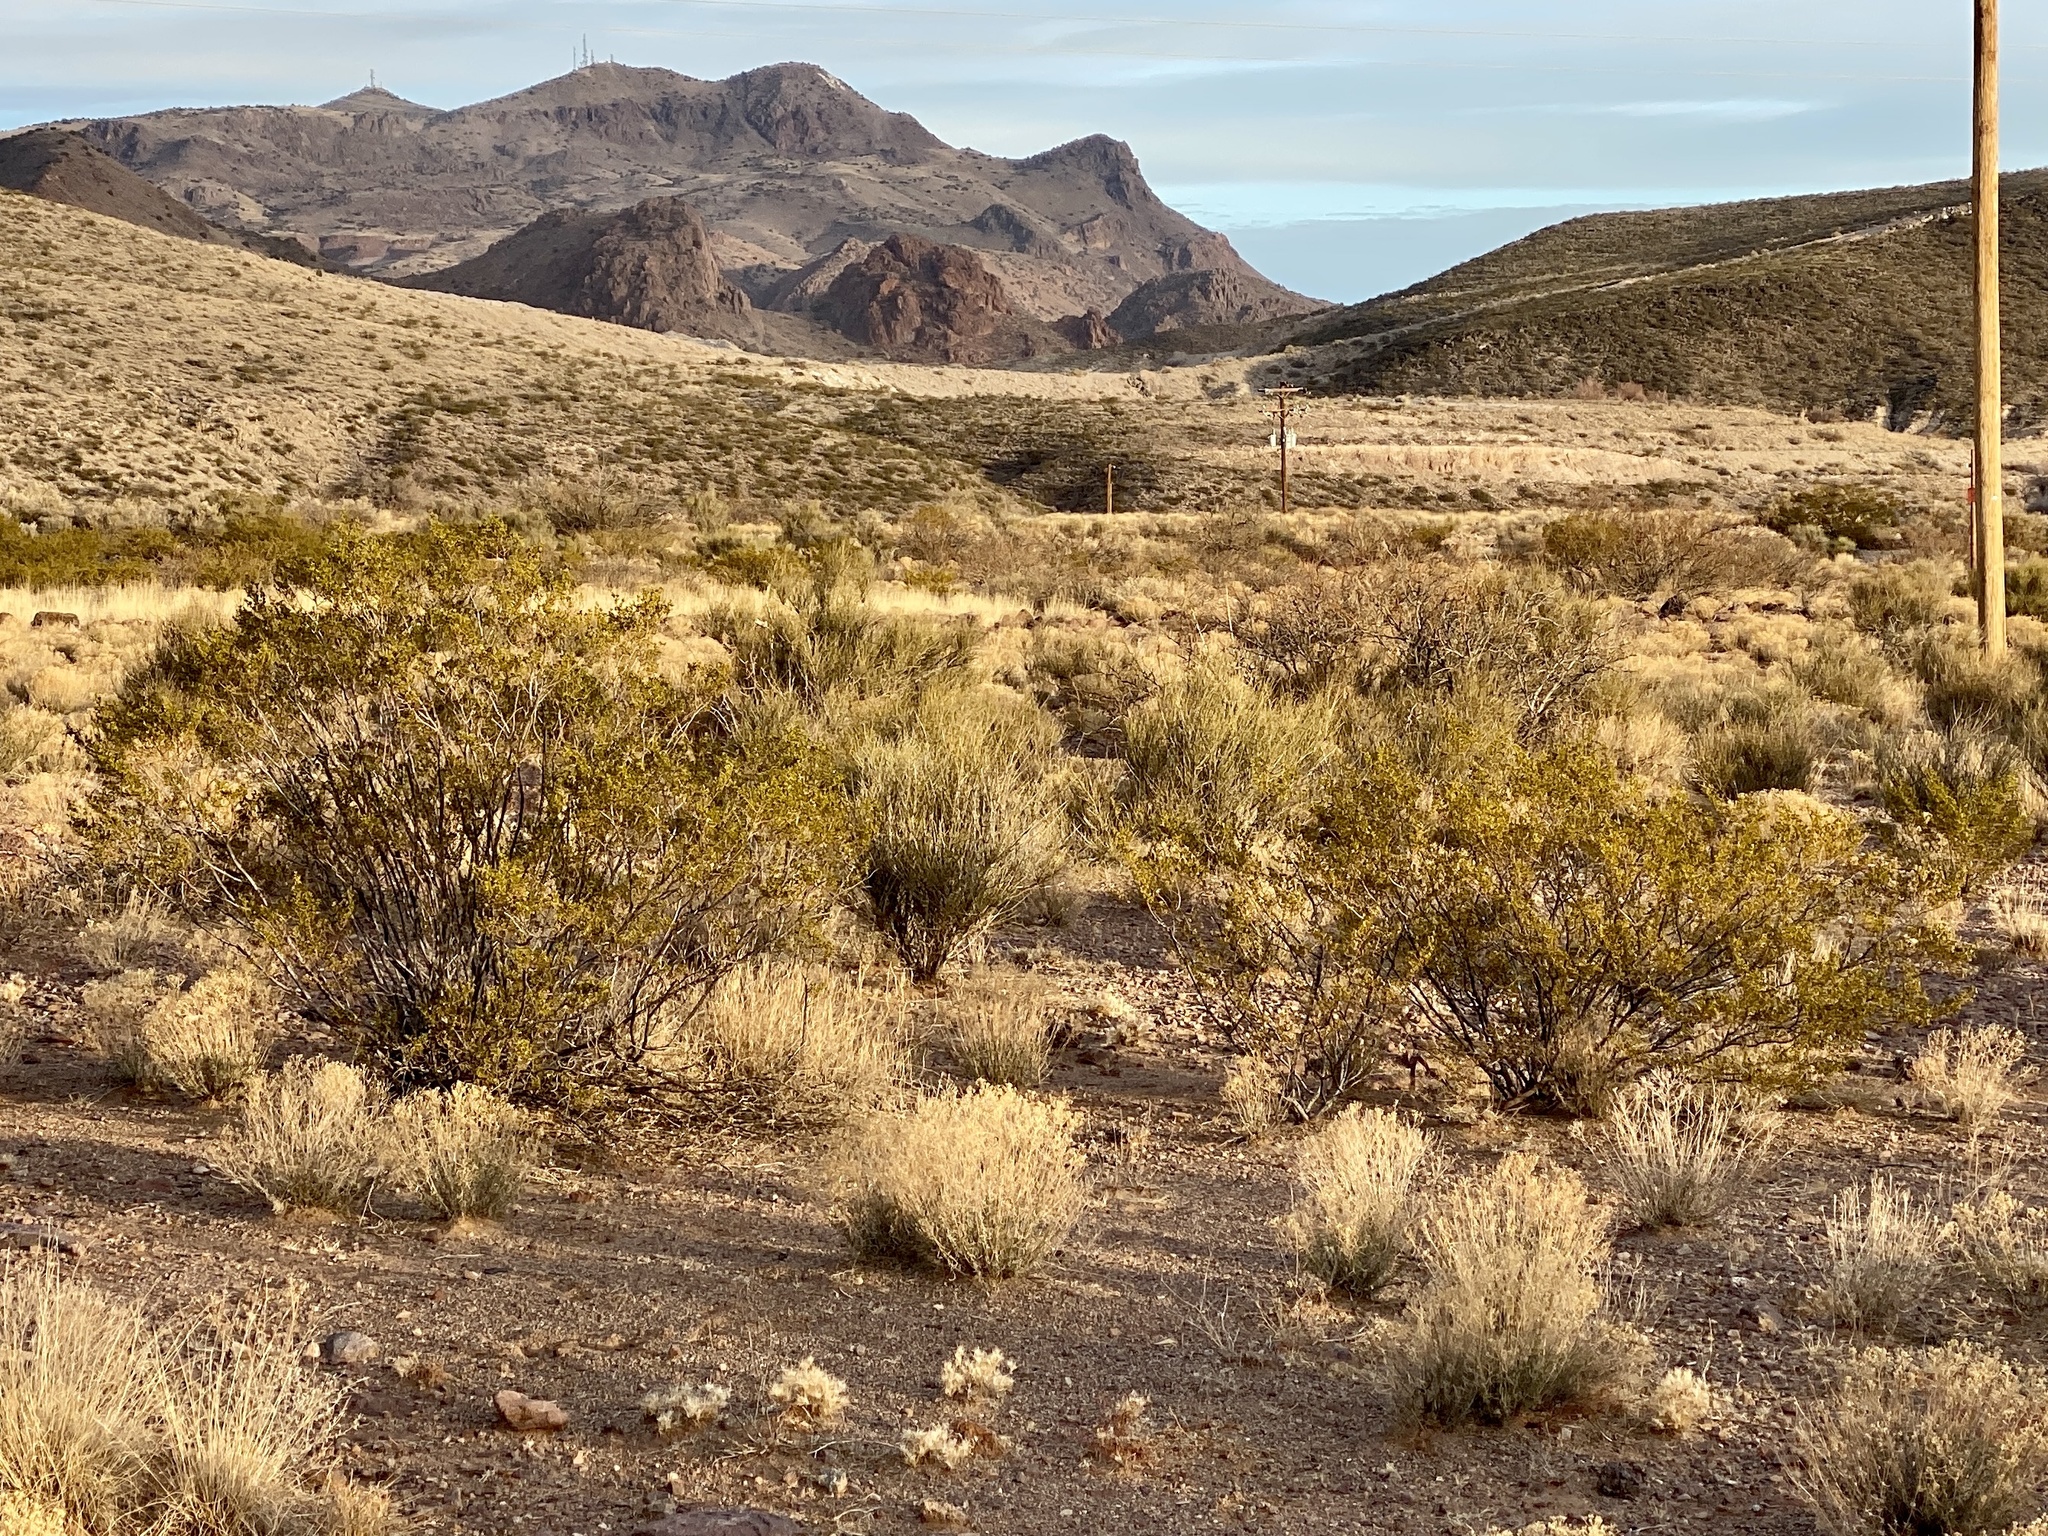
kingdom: Plantae
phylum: Tracheophyta
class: Magnoliopsida
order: Zygophyllales
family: Zygophyllaceae
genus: Larrea
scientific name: Larrea tridentata
